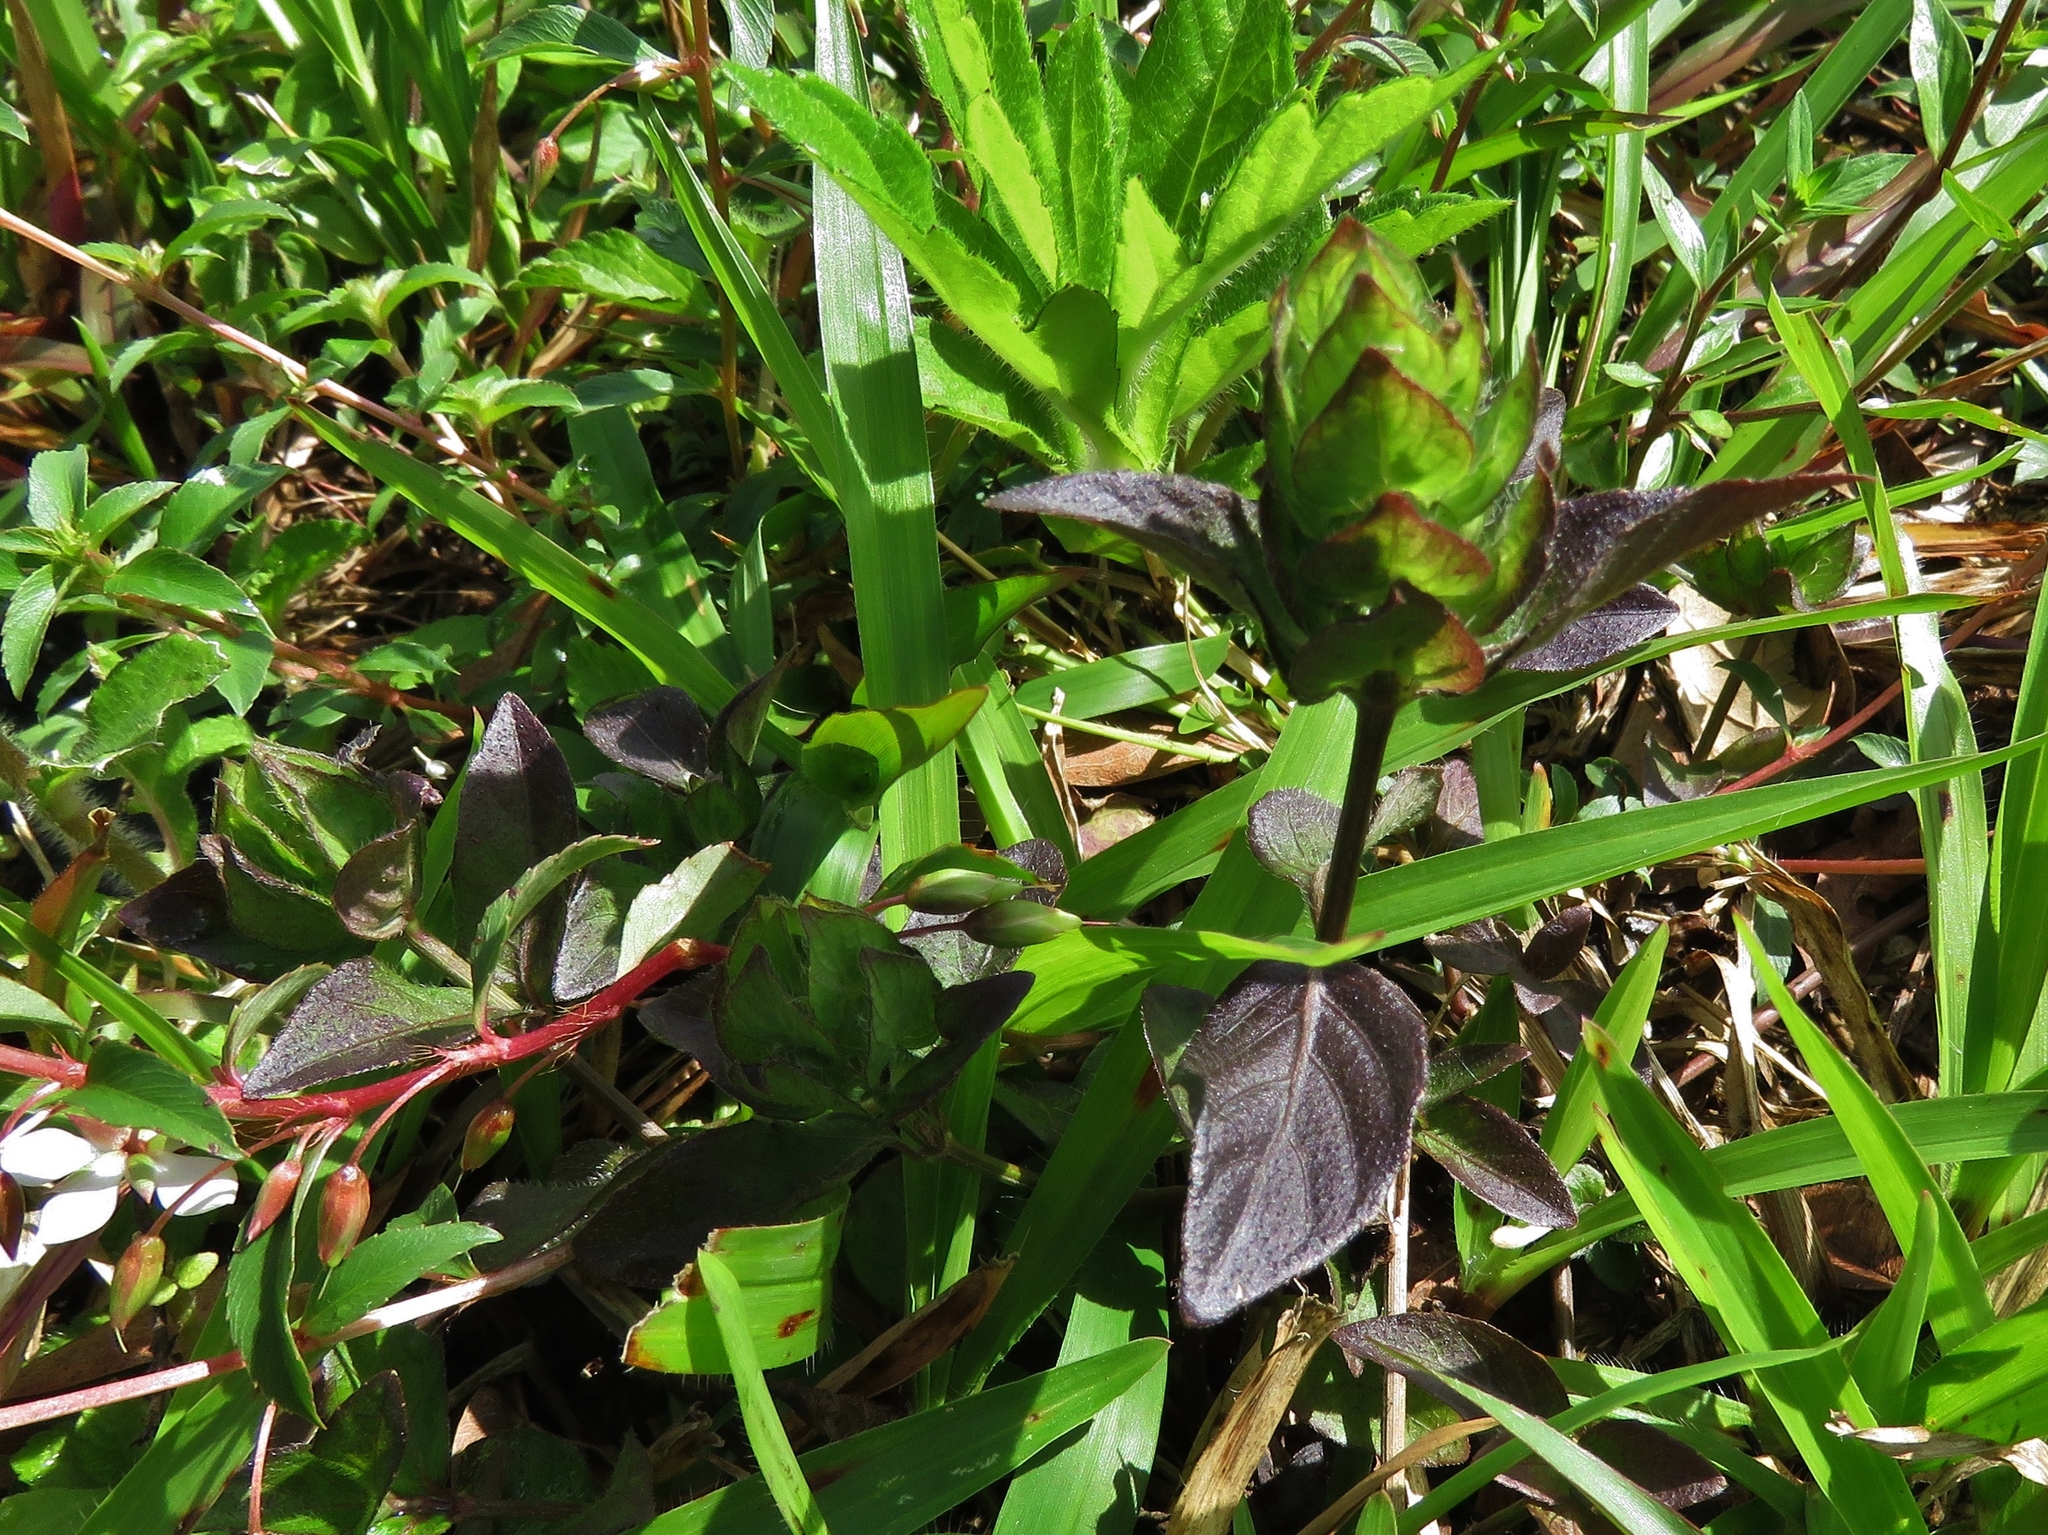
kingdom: Plantae
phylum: Tracheophyta
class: Magnoliopsida
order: Lamiales
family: Acanthaceae
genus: Ruellia
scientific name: Ruellia blechum
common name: Browne's blechum
